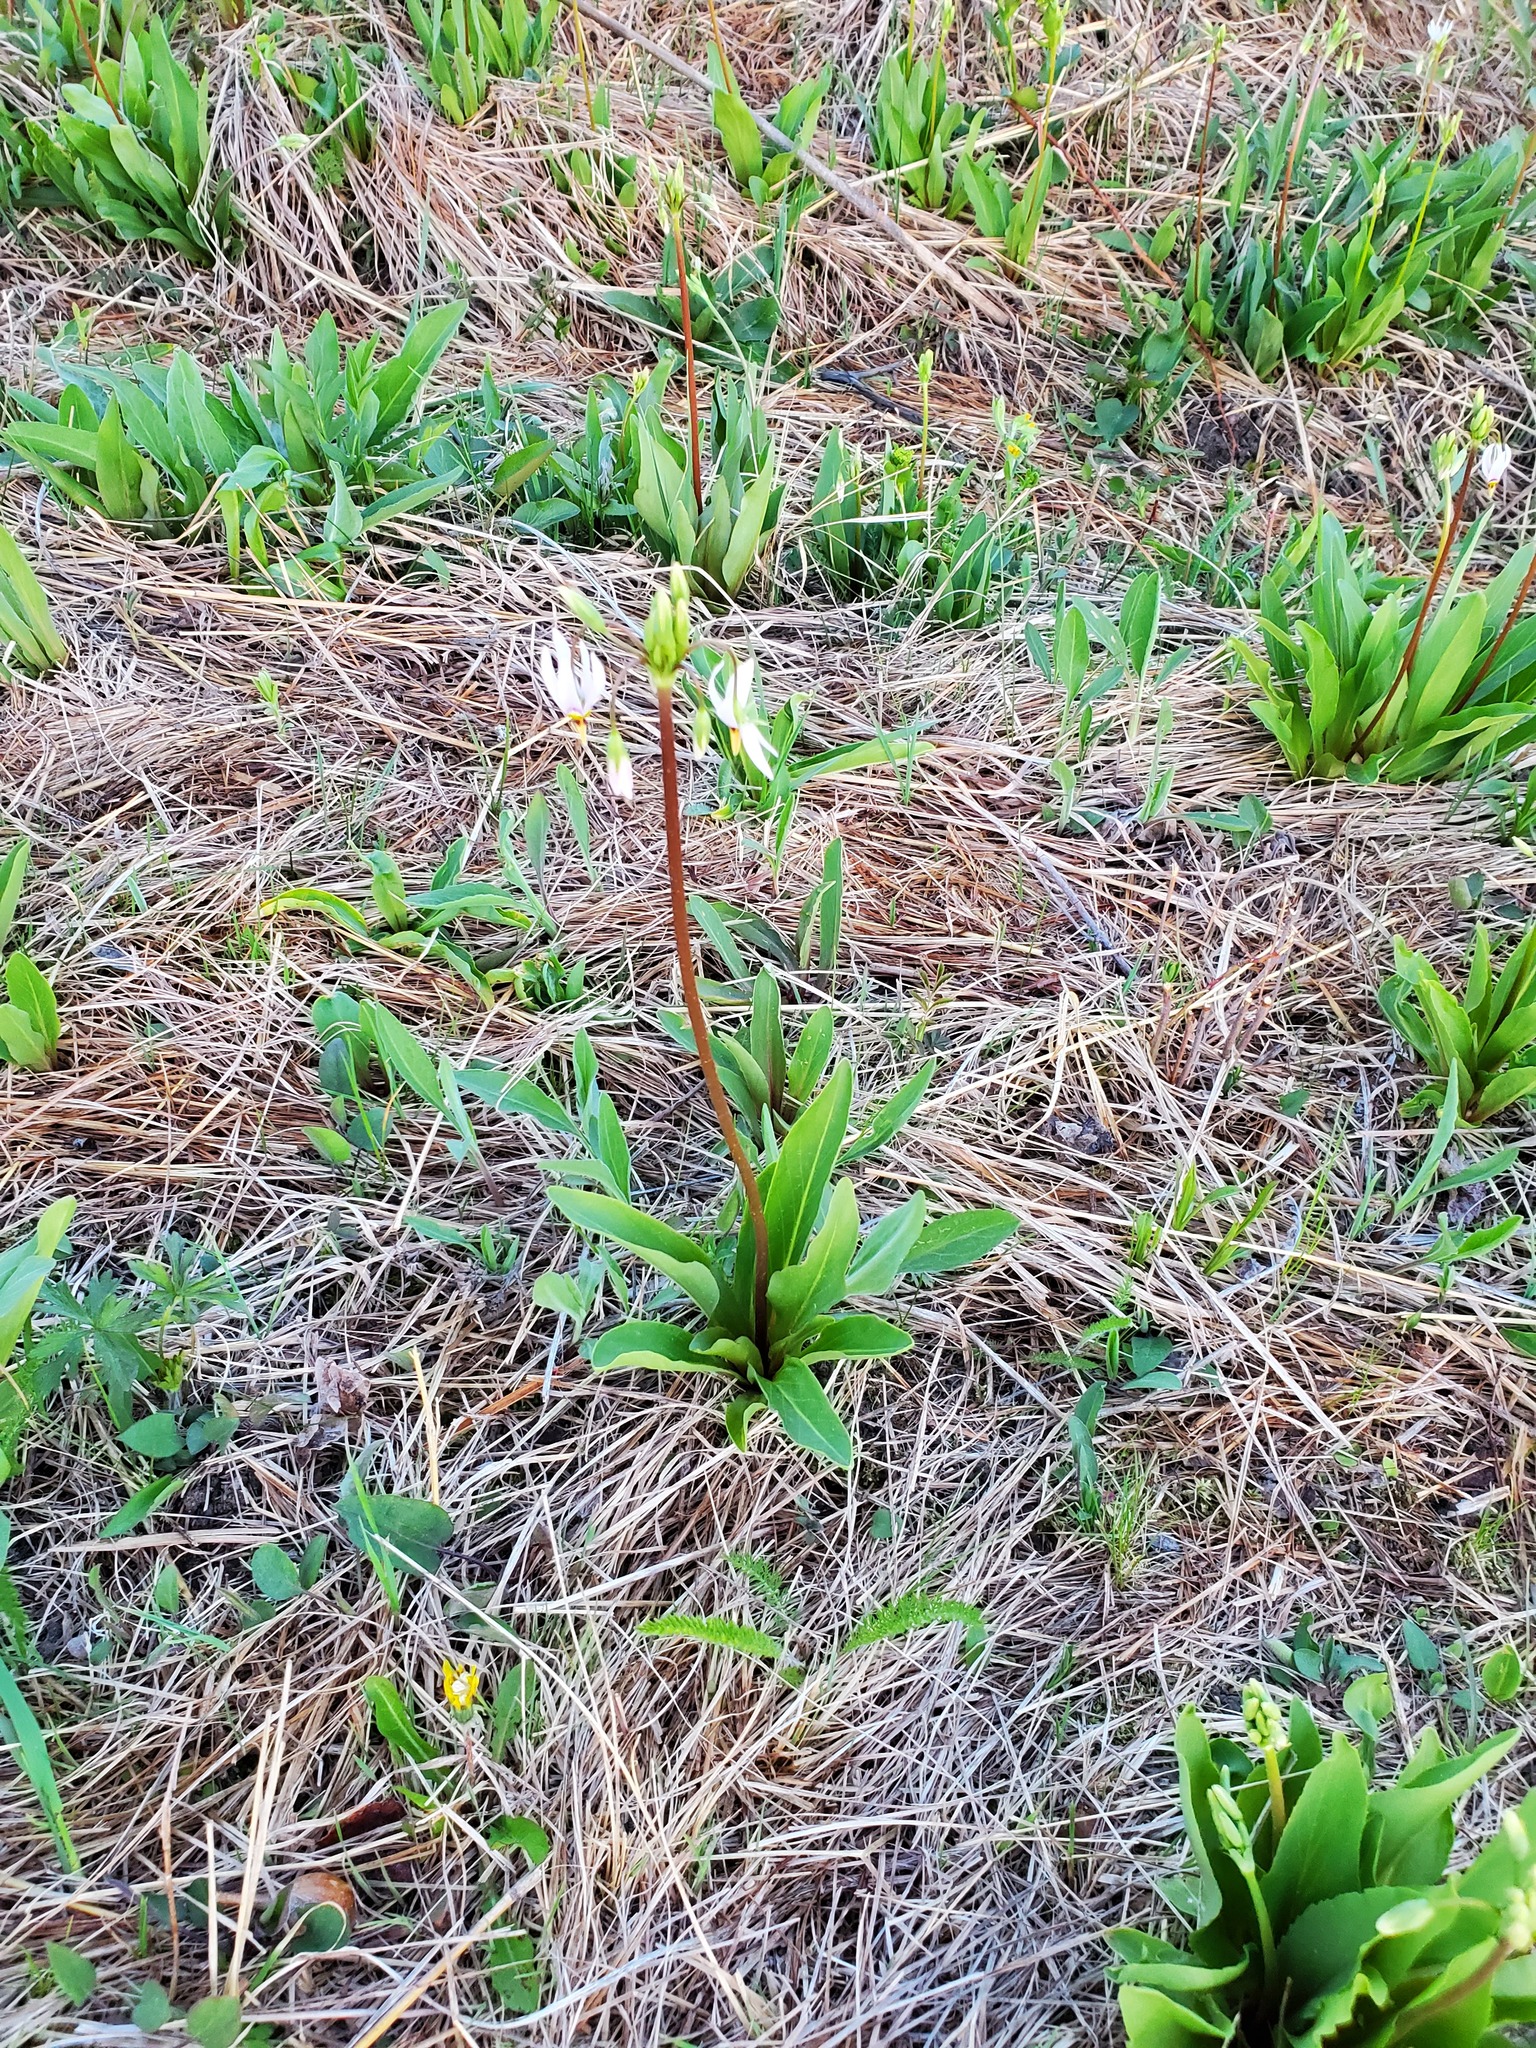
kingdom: Plantae
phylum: Tracheophyta
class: Magnoliopsida
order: Ericales
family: Primulaceae
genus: Dodecatheon
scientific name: Dodecatheon meadia
